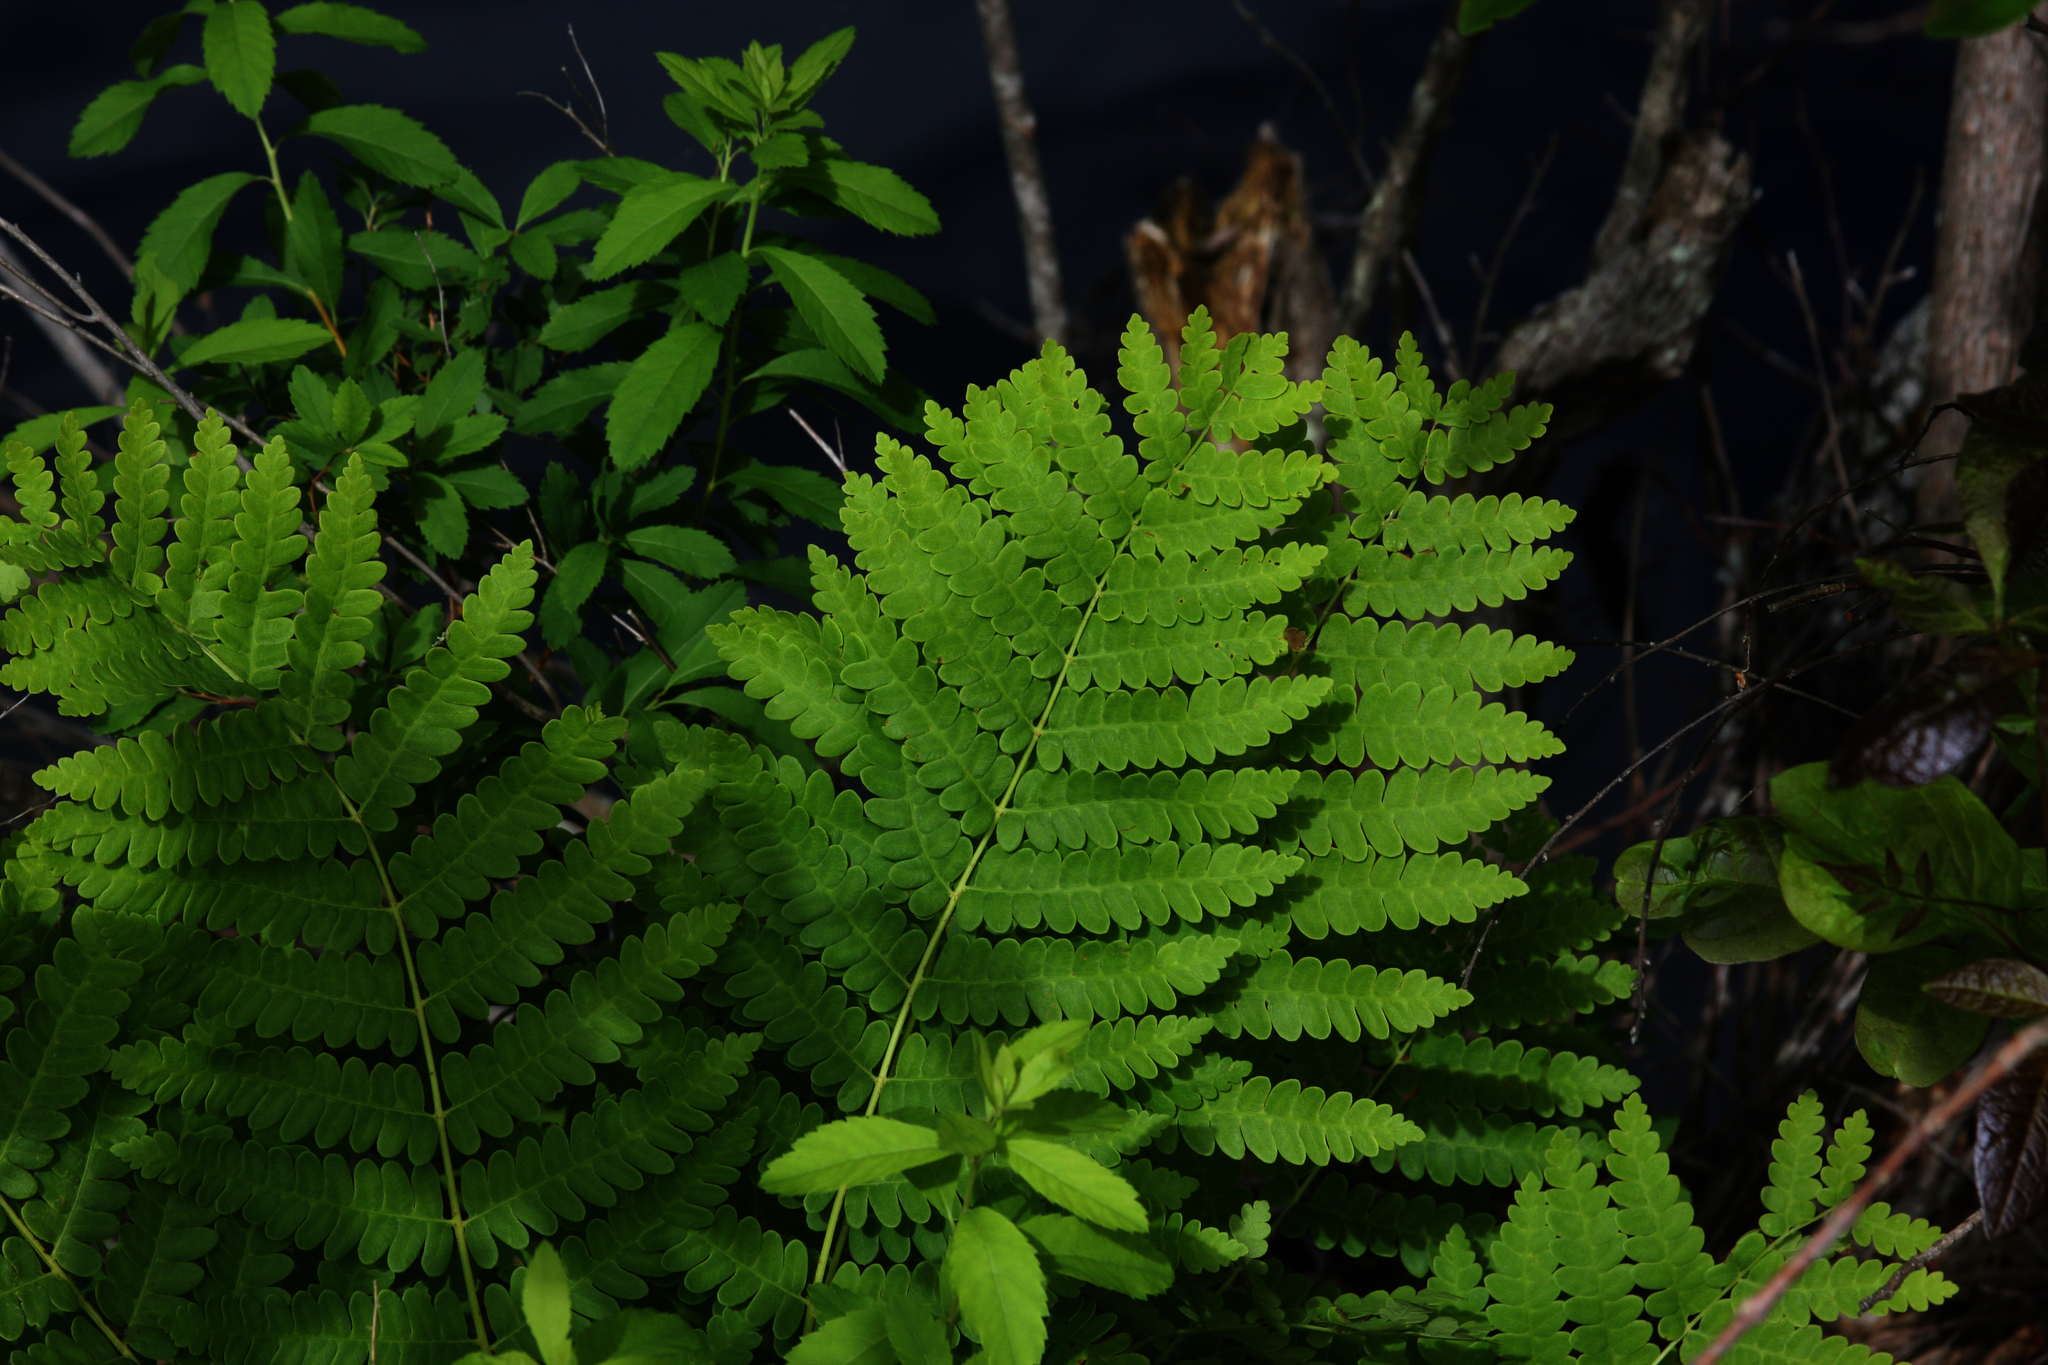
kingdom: Plantae
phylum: Tracheophyta
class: Polypodiopsida
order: Osmundales
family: Osmundaceae
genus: Claytosmunda
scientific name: Claytosmunda claytoniana
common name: Clayton's fern
